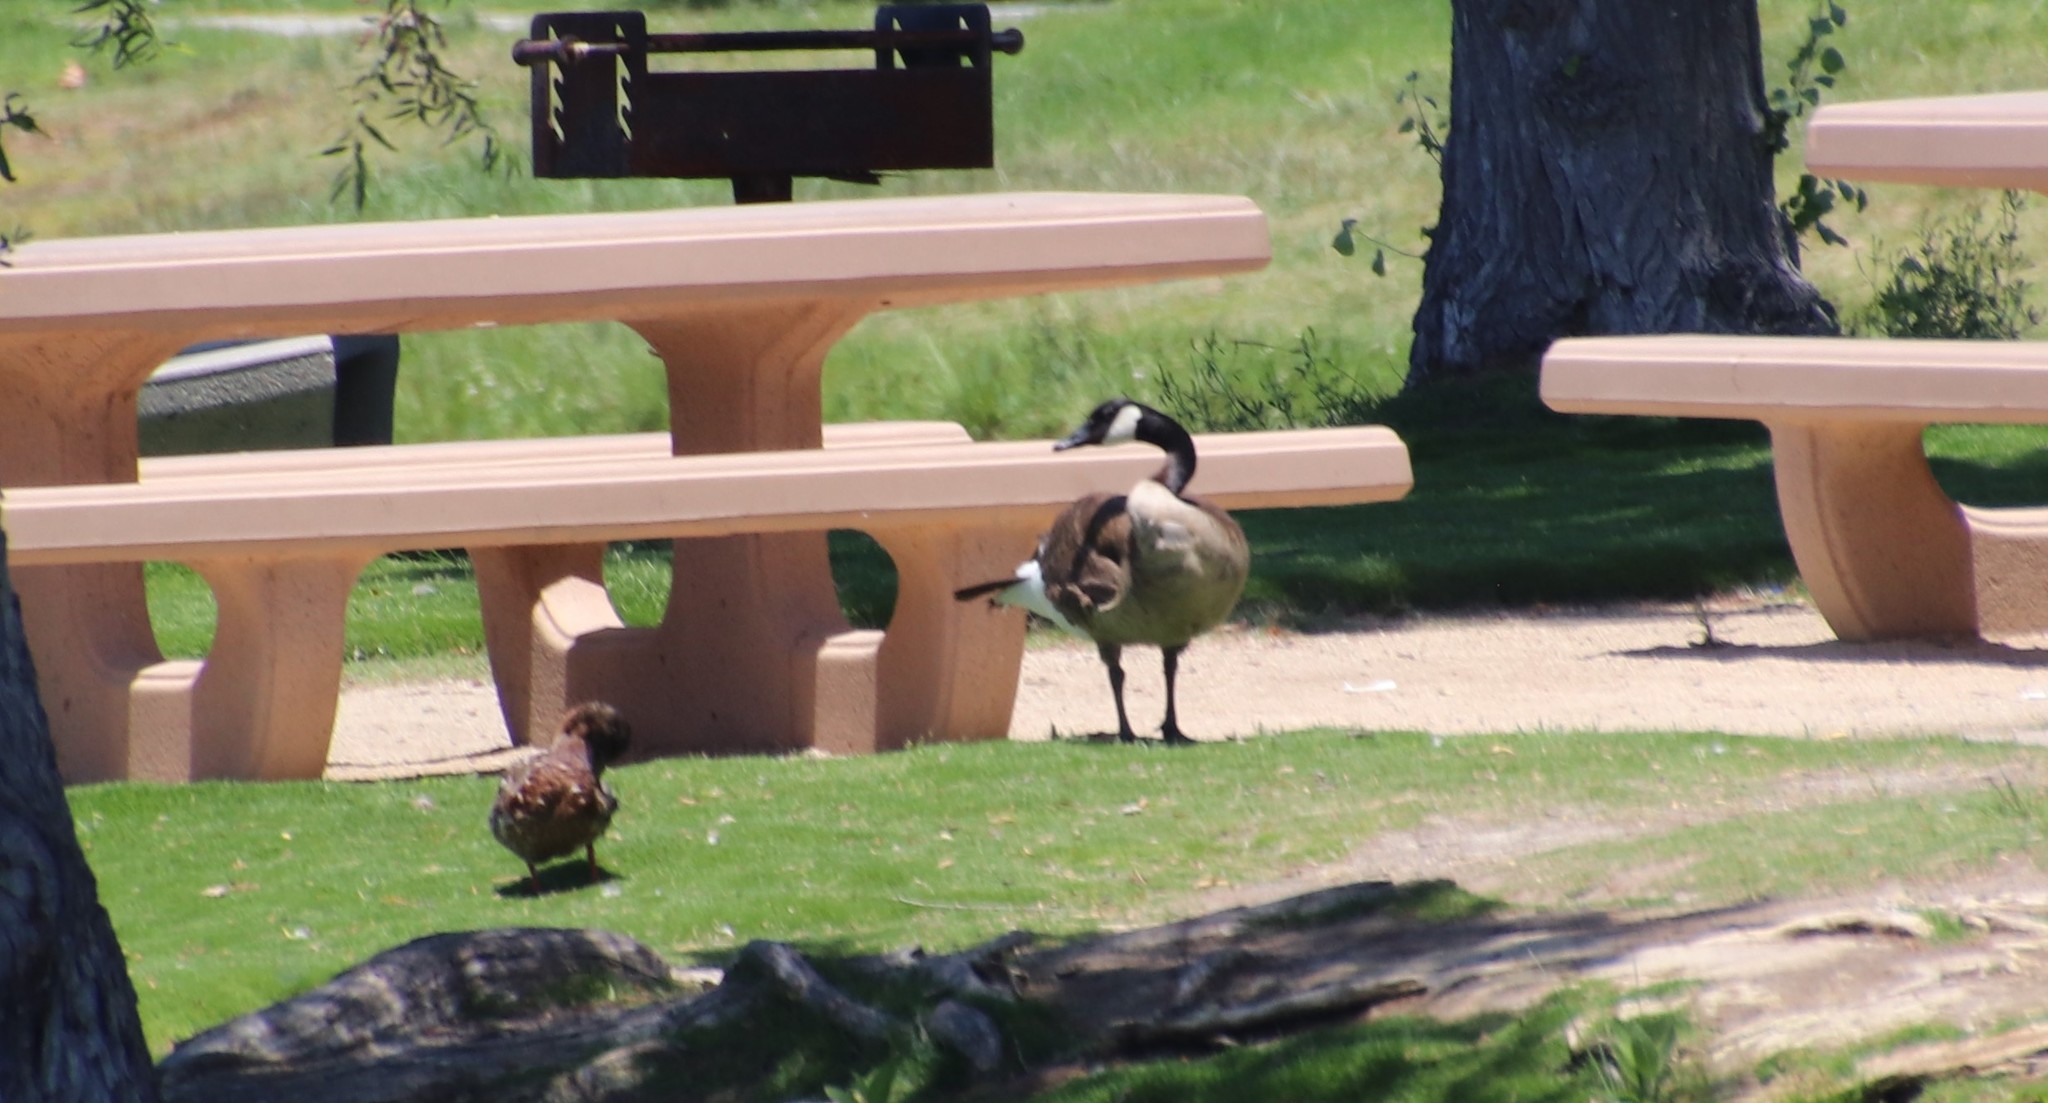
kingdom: Animalia
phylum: Chordata
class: Aves
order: Anseriformes
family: Anatidae
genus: Branta
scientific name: Branta canadensis
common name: Canada goose
